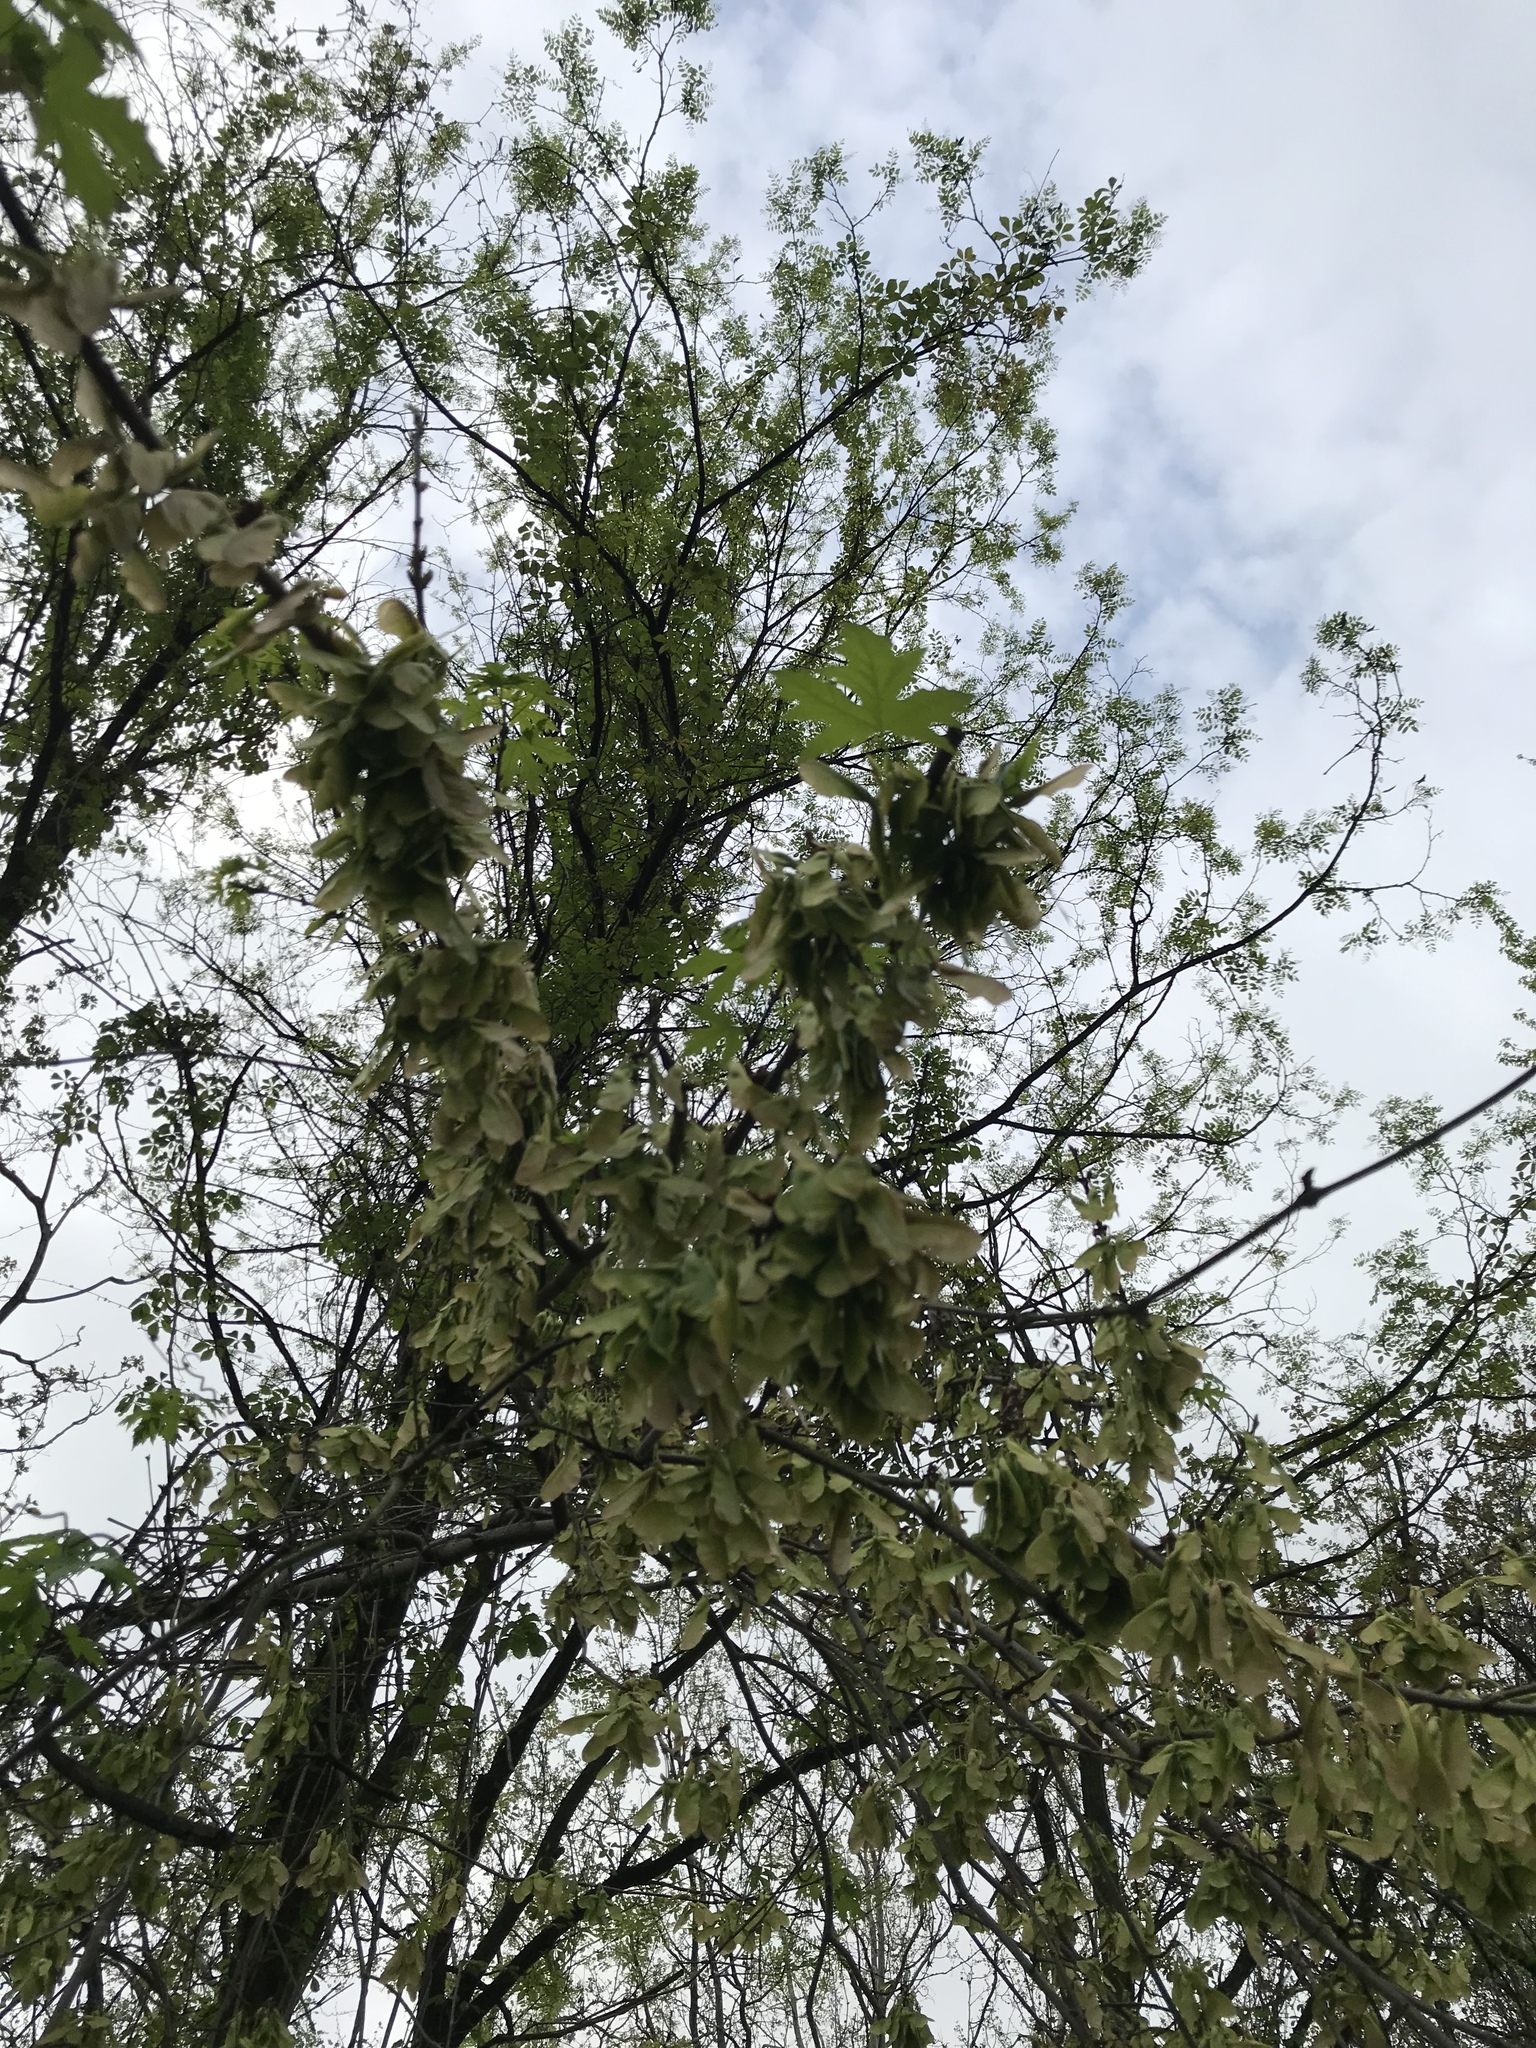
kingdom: Plantae
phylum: Tracheophyta
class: Magnoliopsida
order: Sapindales
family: Sapindaceae
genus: Acer
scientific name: Acer saccharinum
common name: Silver maple
